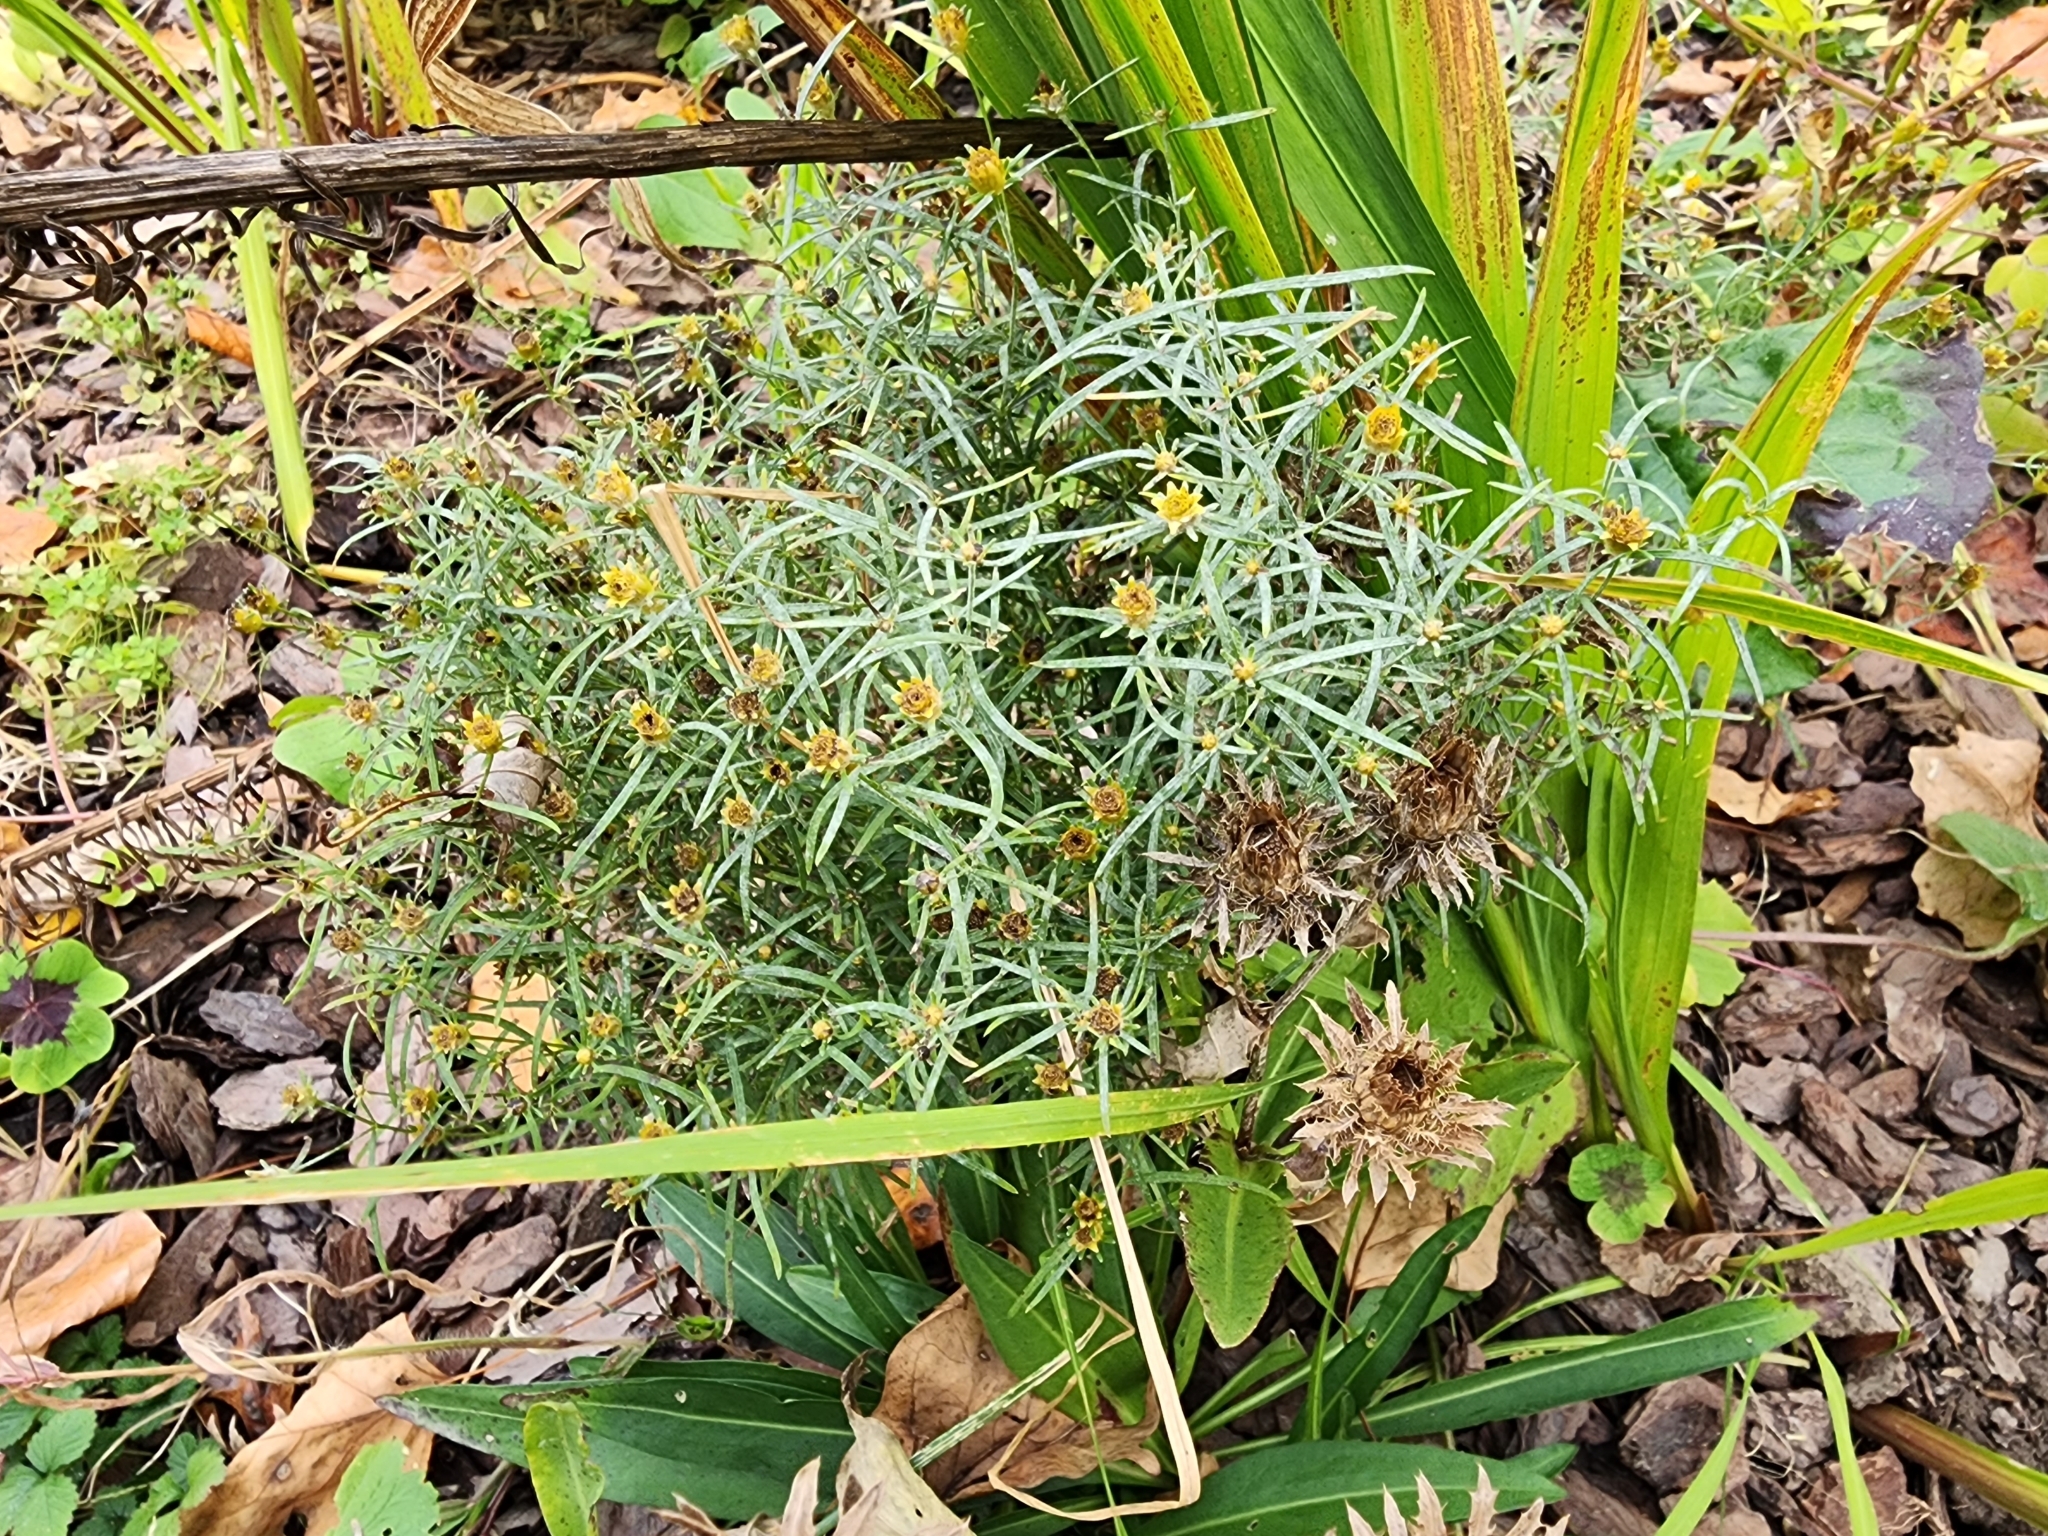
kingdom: Plantae
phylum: Tracheophyta
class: Magnoliopsida
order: Asterales
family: Asteraceae
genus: Coreopsis
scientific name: Coreopsis verticillata
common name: Whorled tickseed
